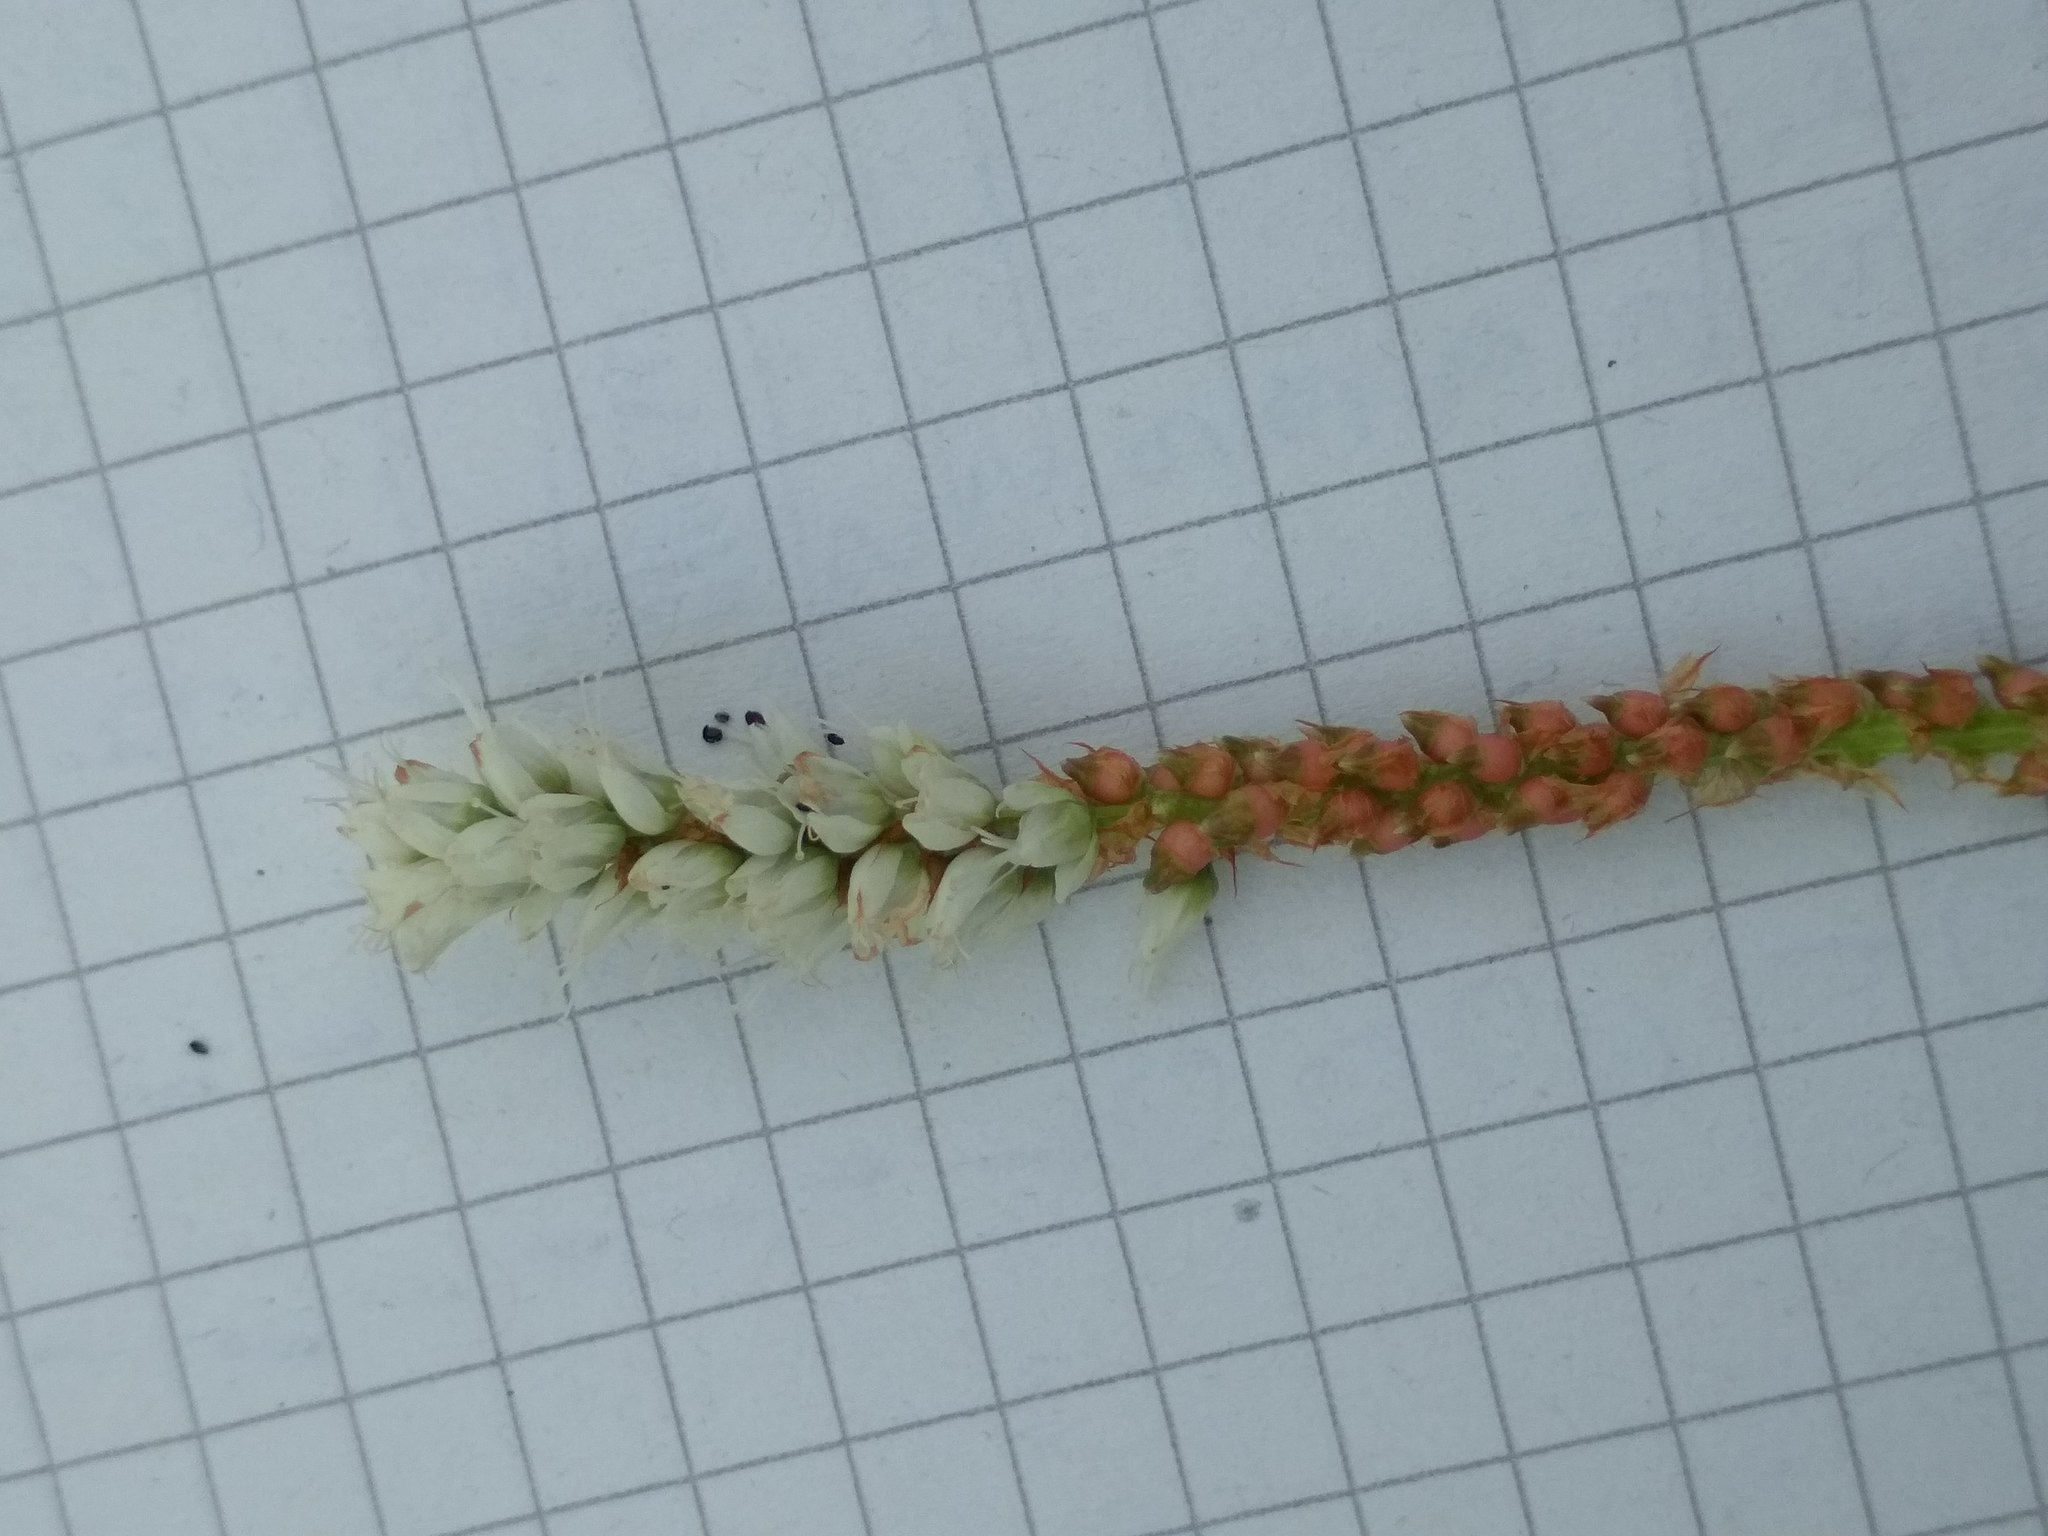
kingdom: Plantae
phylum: Tracheophyta
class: Magnoliopsida
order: Caryophyllales
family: Polygonaceae
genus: Bistorta
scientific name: Bistorta vivipara
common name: Alpine bistort
